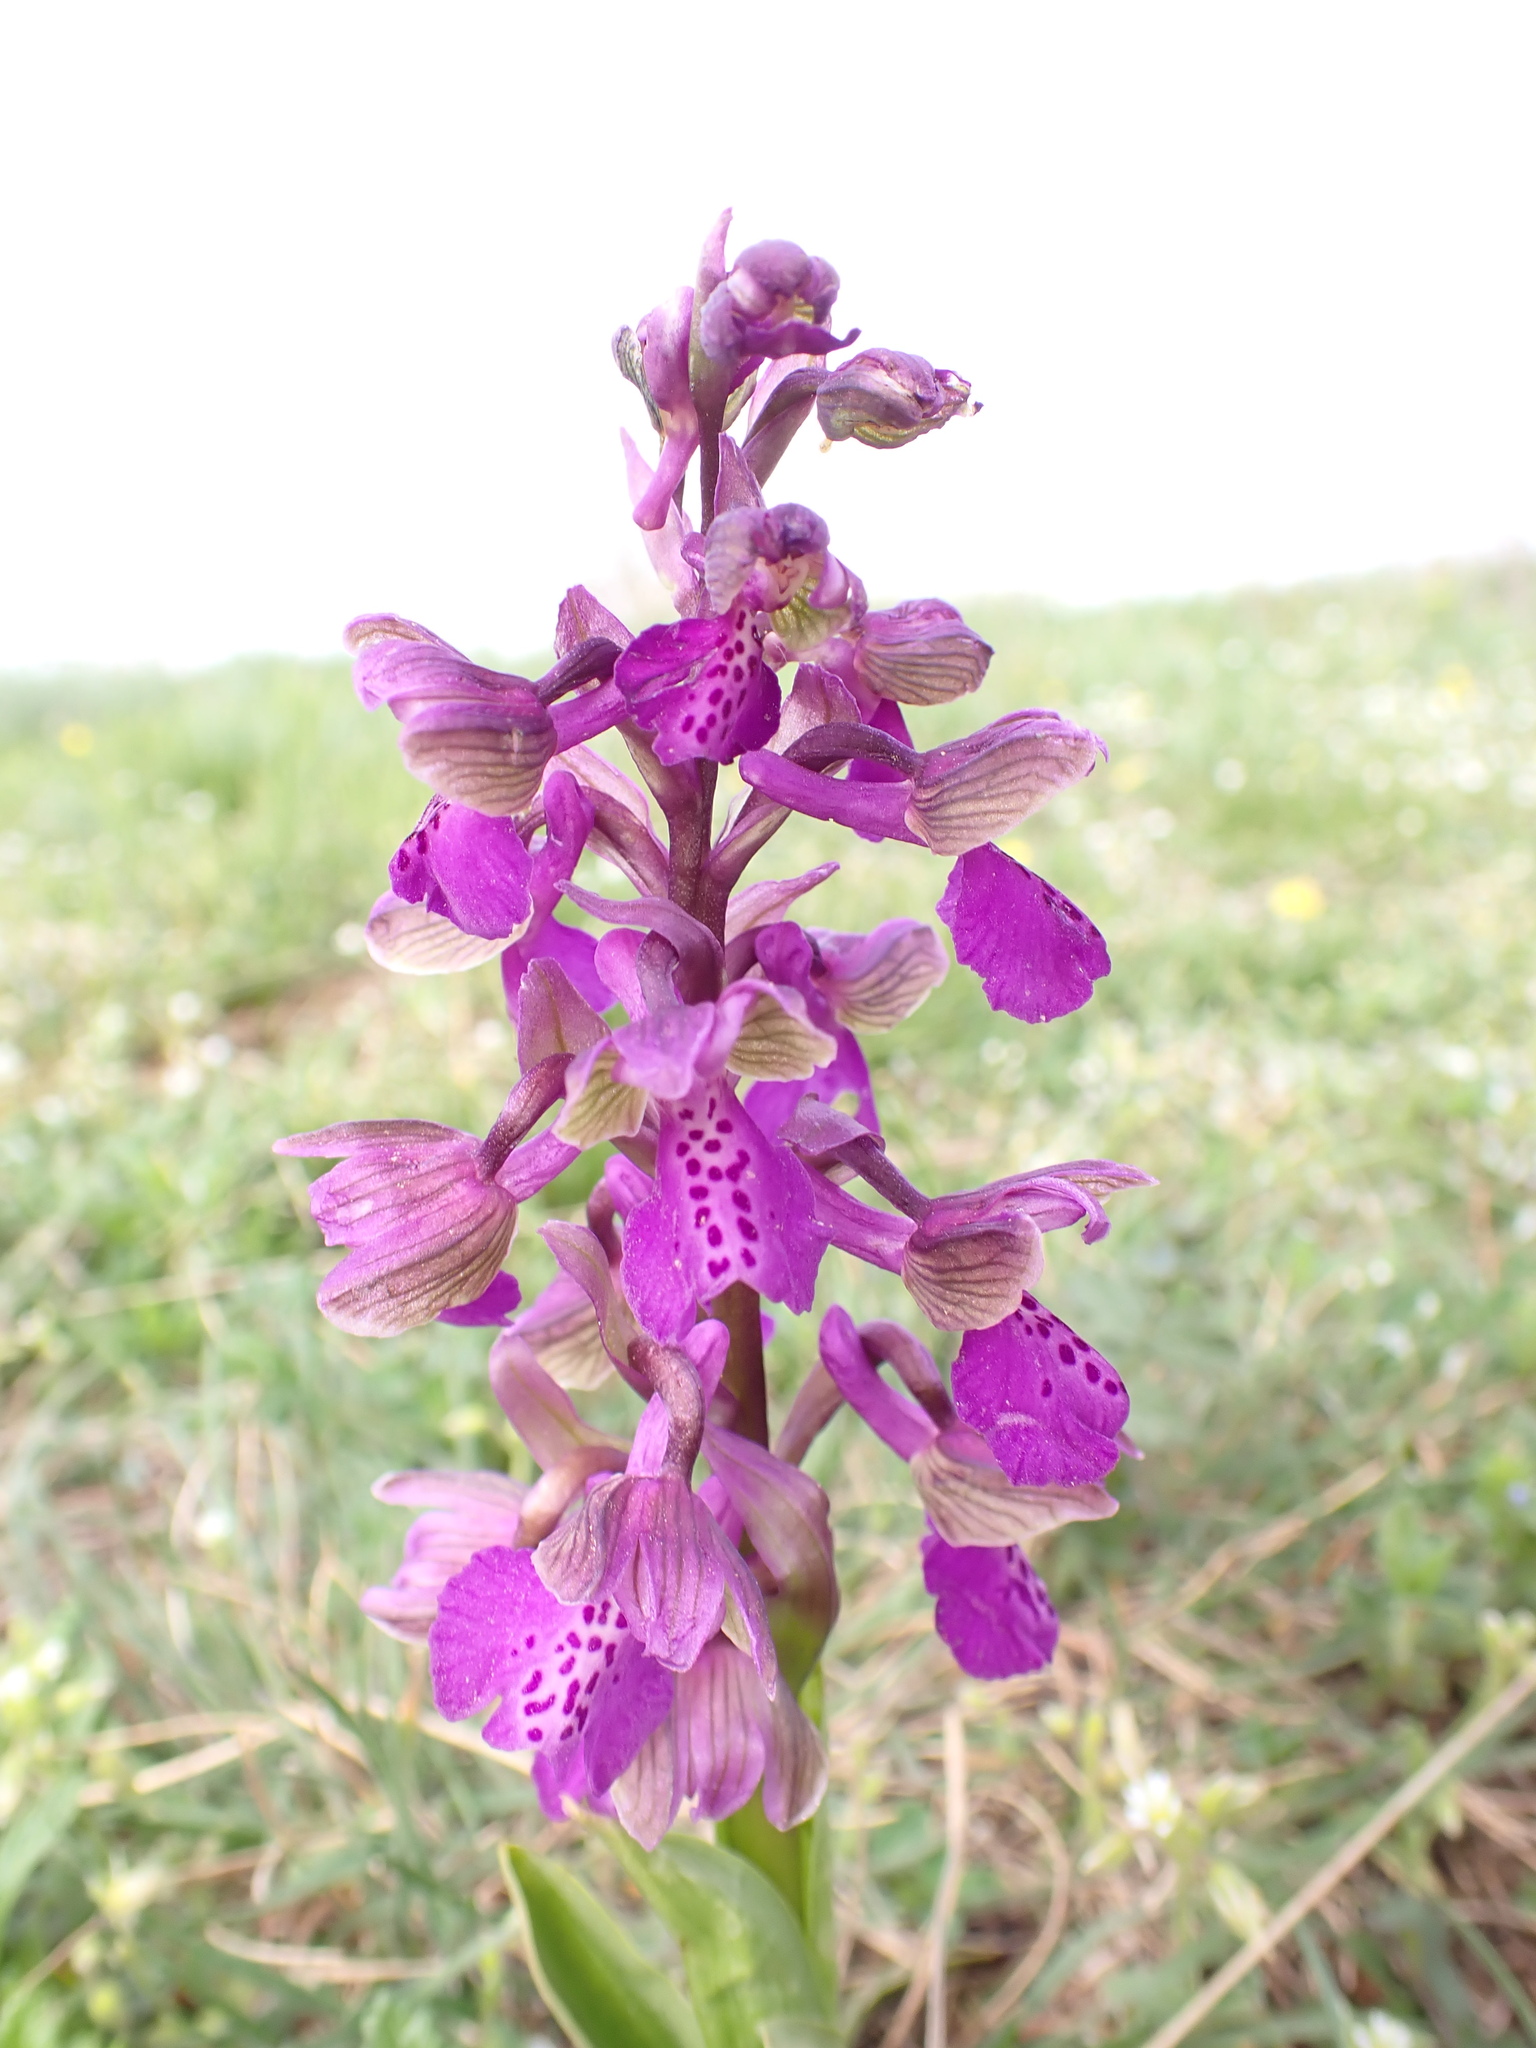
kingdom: Plantae
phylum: Tracheophyta
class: Liliopsida
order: Asparagales
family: Orchidaceae
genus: Anacamptis
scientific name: Anacamptis morio
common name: Green-winged orchid
